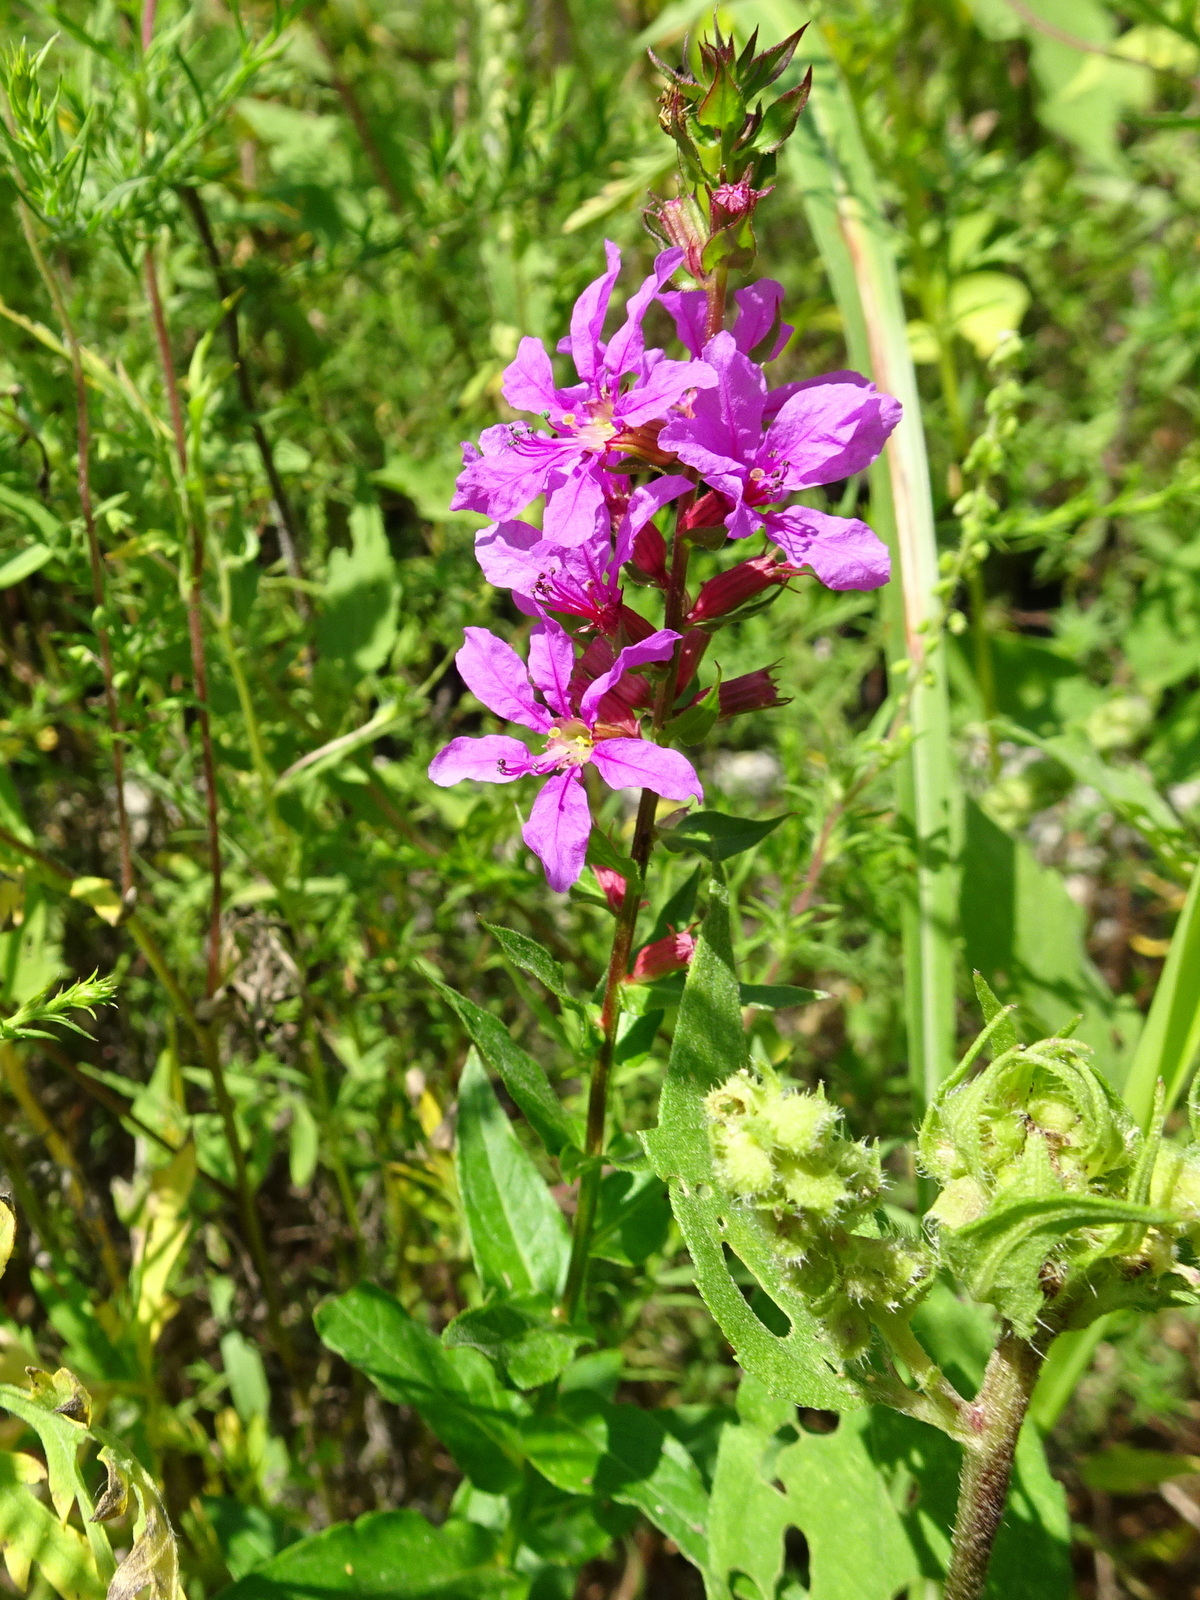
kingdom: Plantae
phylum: Tracheophyta
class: Magnoliopsida
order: Myrtales
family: Lythraceae
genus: Lythrum
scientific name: Lythrum salicaria
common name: Purple loosestrife
